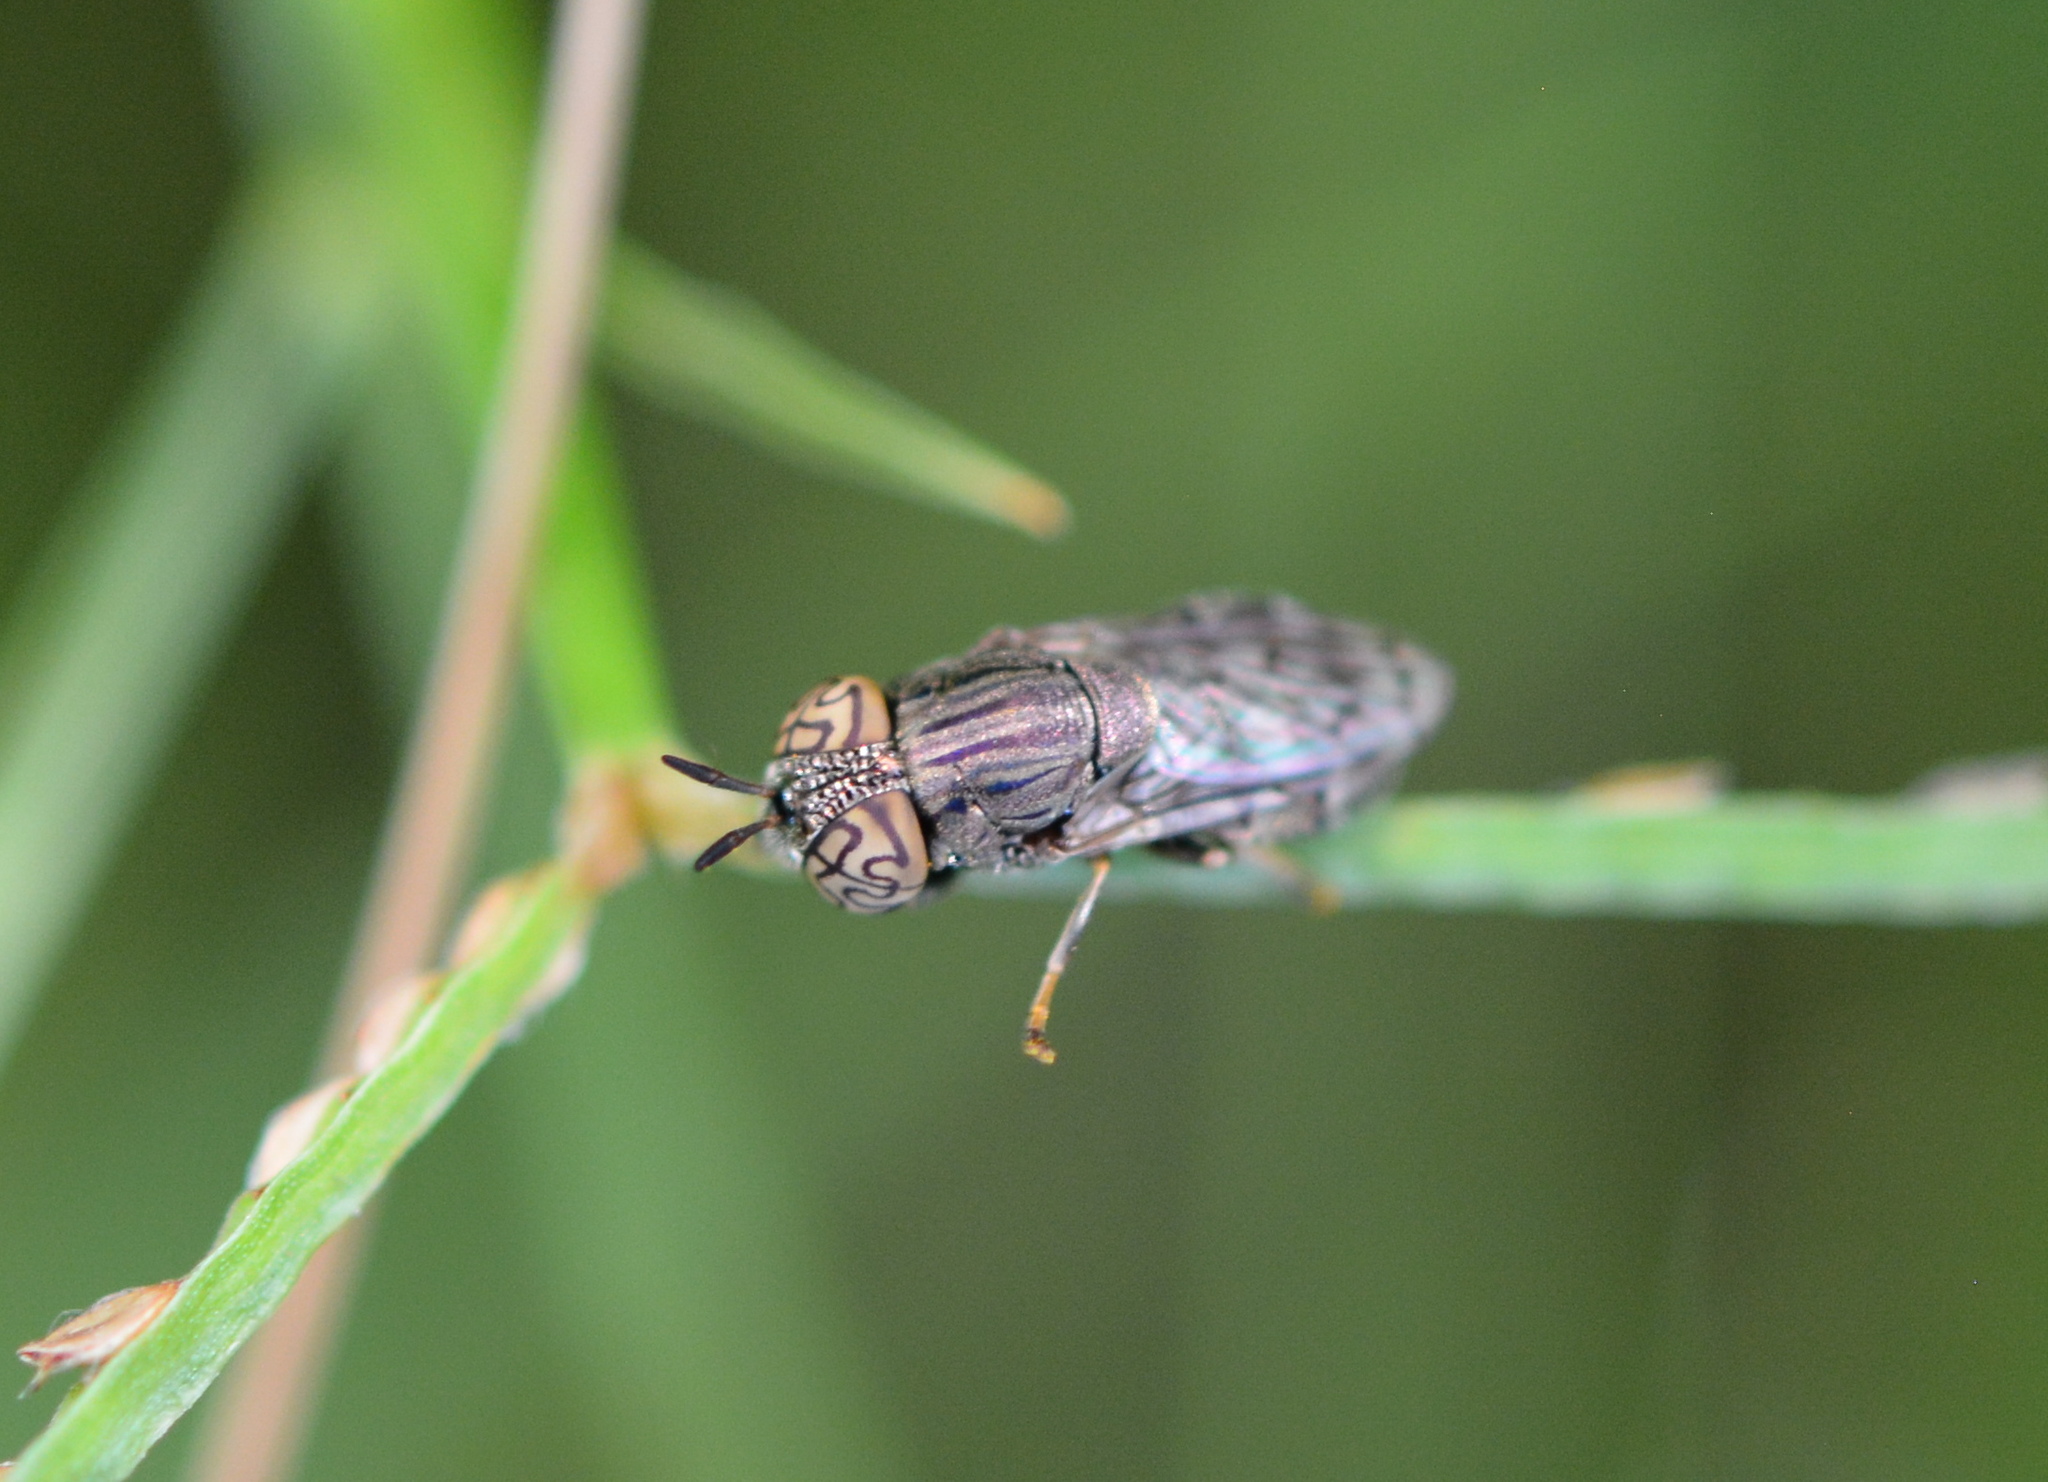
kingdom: Animalia
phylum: Arthropoda
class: Insecta
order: Diptera
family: Syrphidae
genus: Orthonevra
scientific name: Orthonevra nitida
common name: Wavy mucksucker
